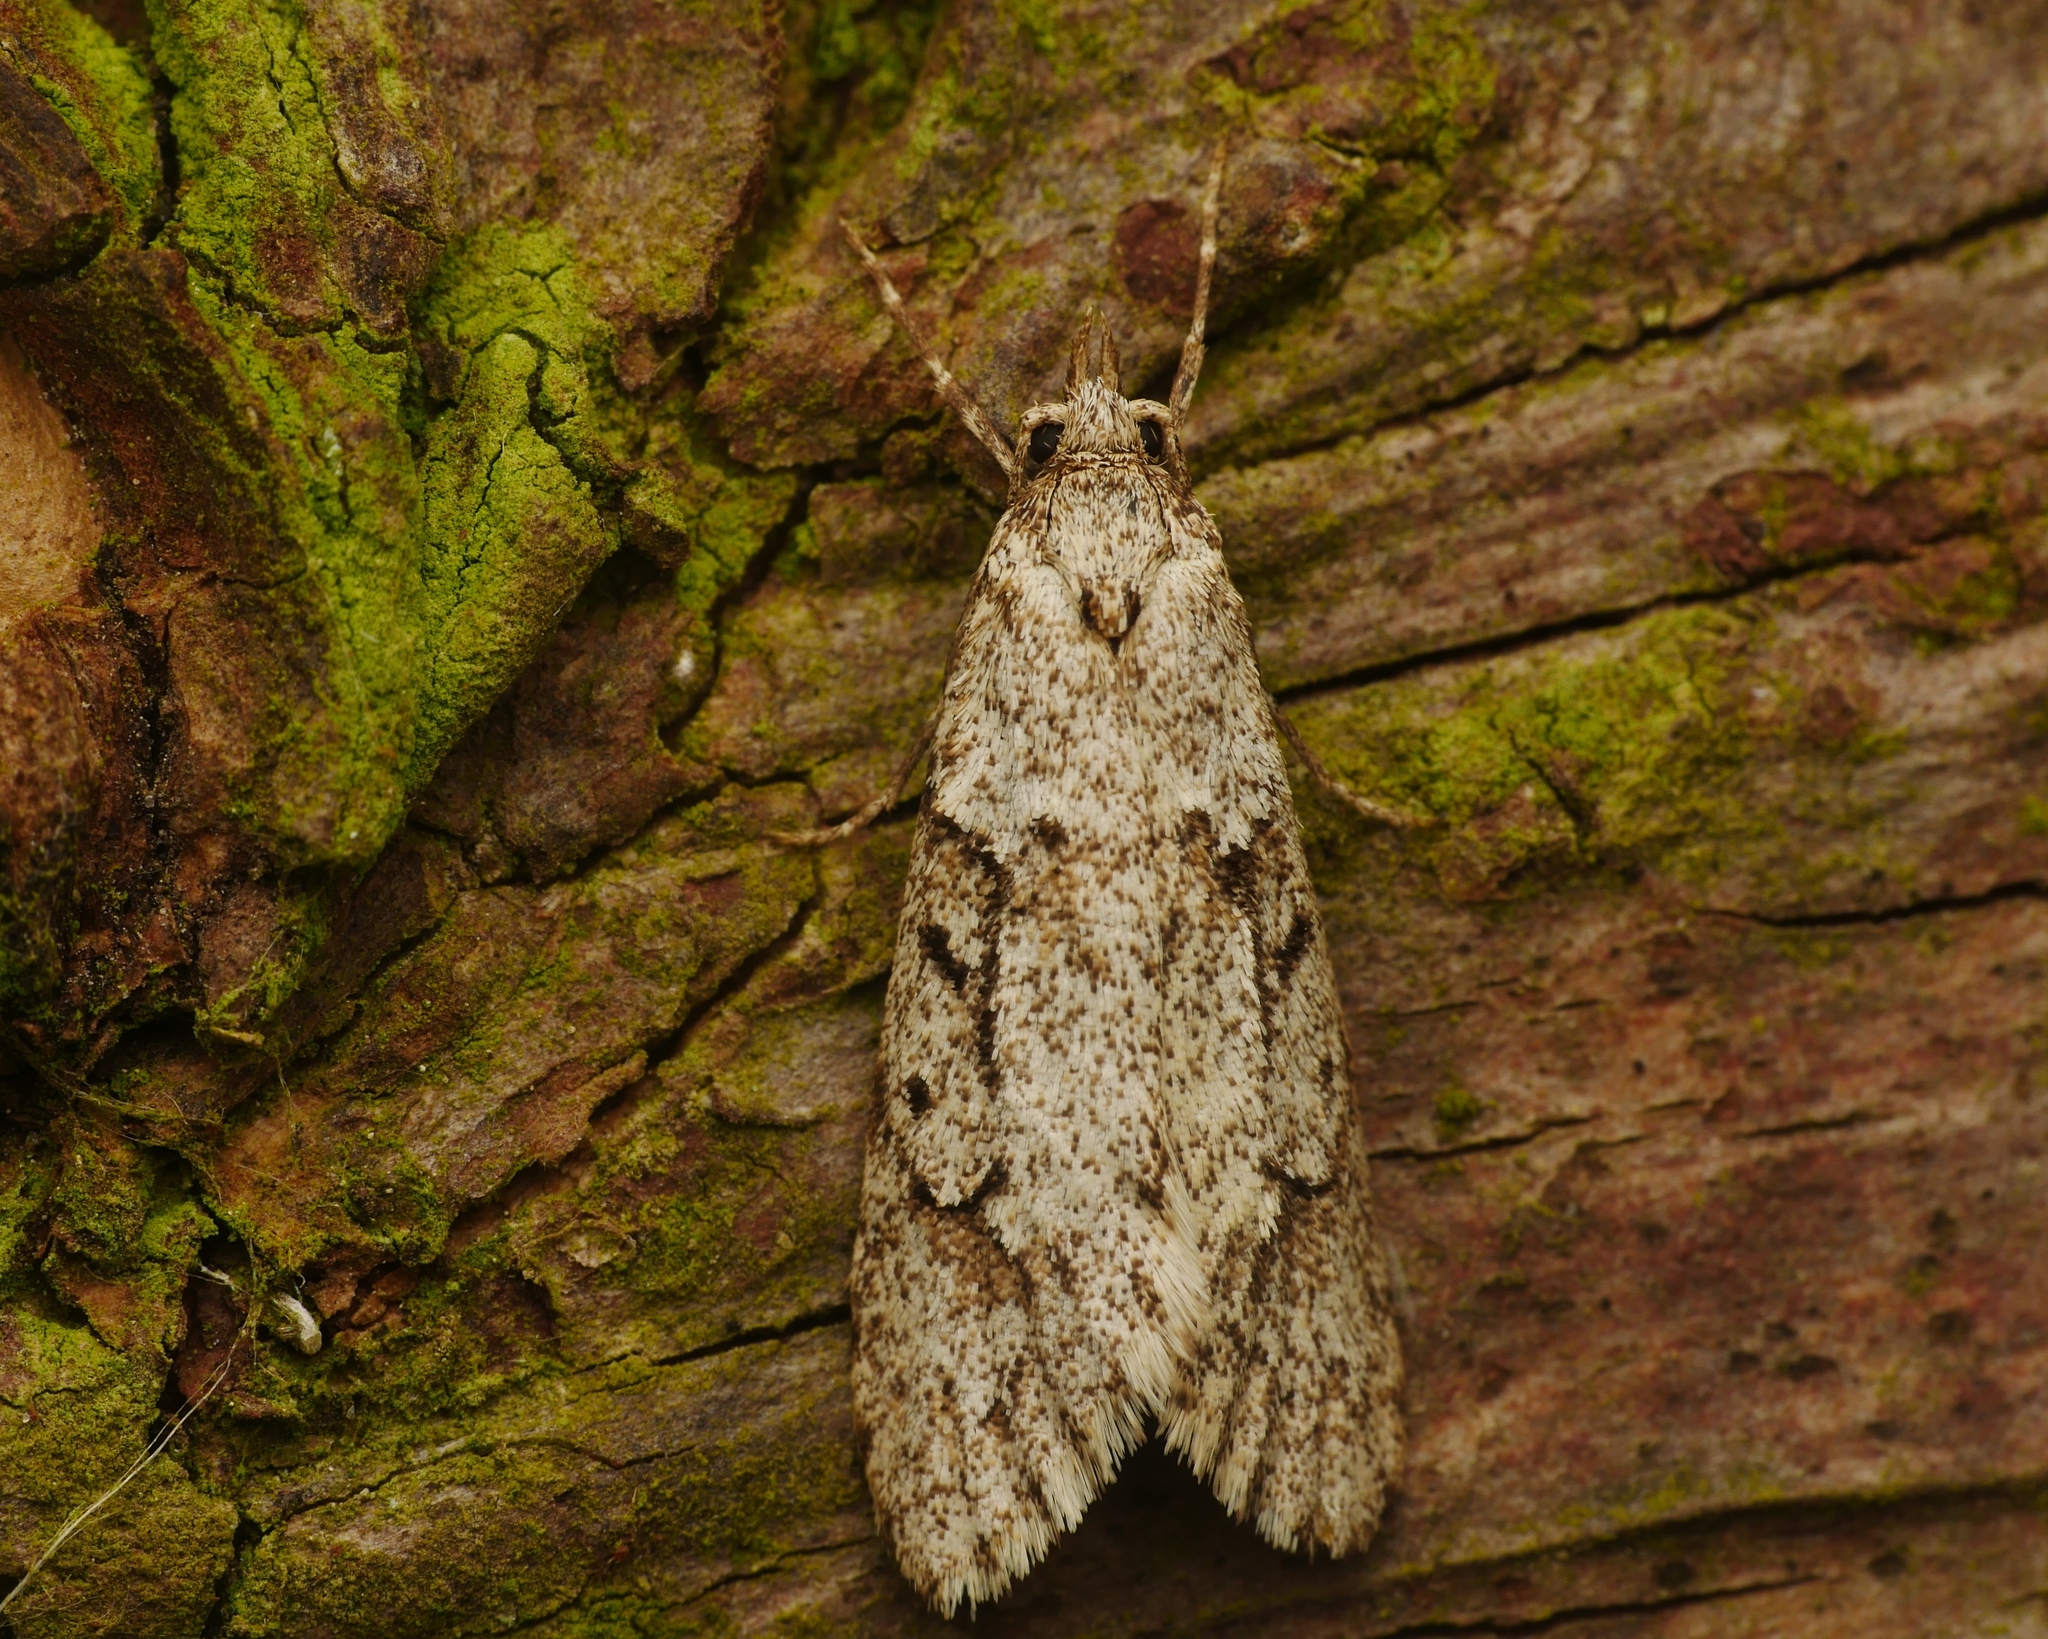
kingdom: Animalia
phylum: Arthropoda
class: Insecta
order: Lepidoptera
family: Lypusidae
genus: Diurnea
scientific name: Diurnea fagella
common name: March tubic
